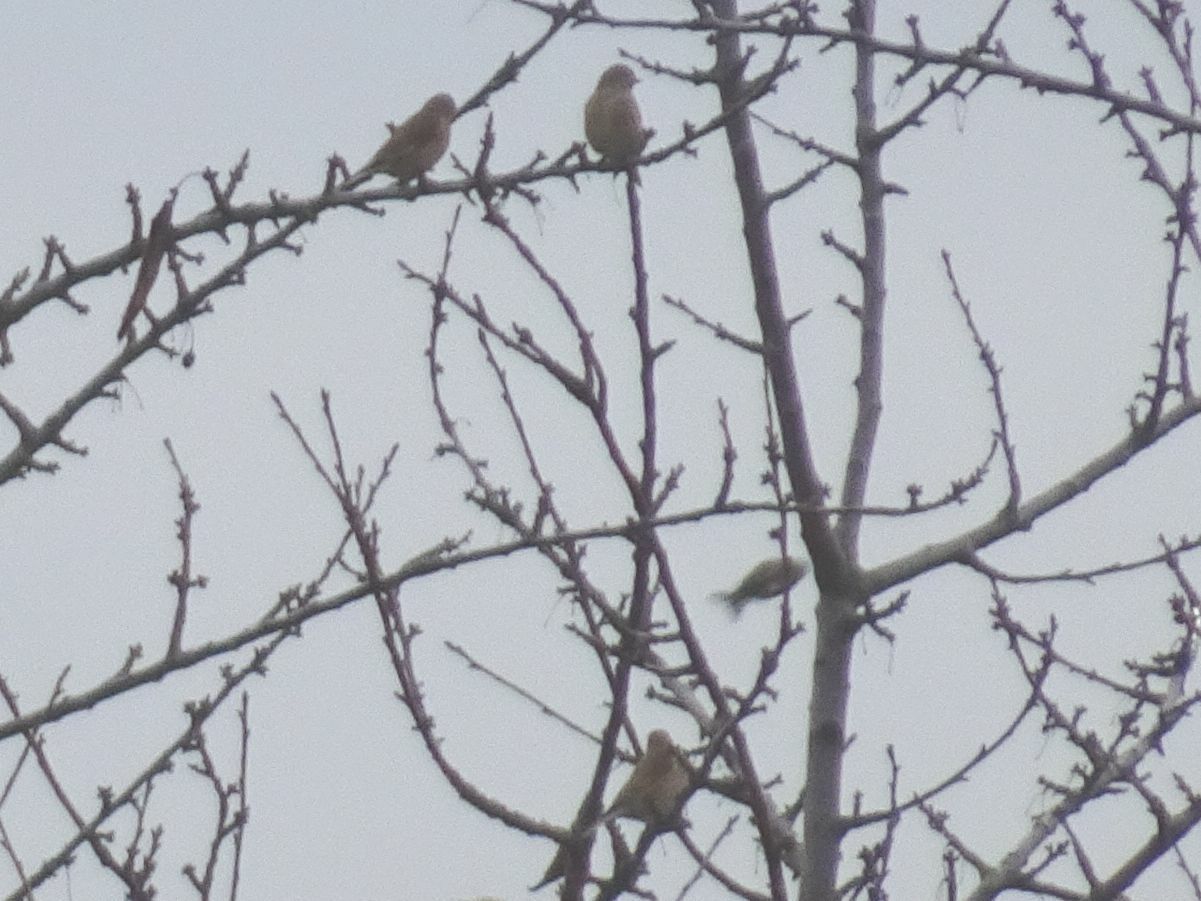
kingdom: Animalia
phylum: Chordata
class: Aves
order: Passeriformes
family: Fringillidae
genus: Linaria
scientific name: Linaria cannabina
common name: Common linnet
